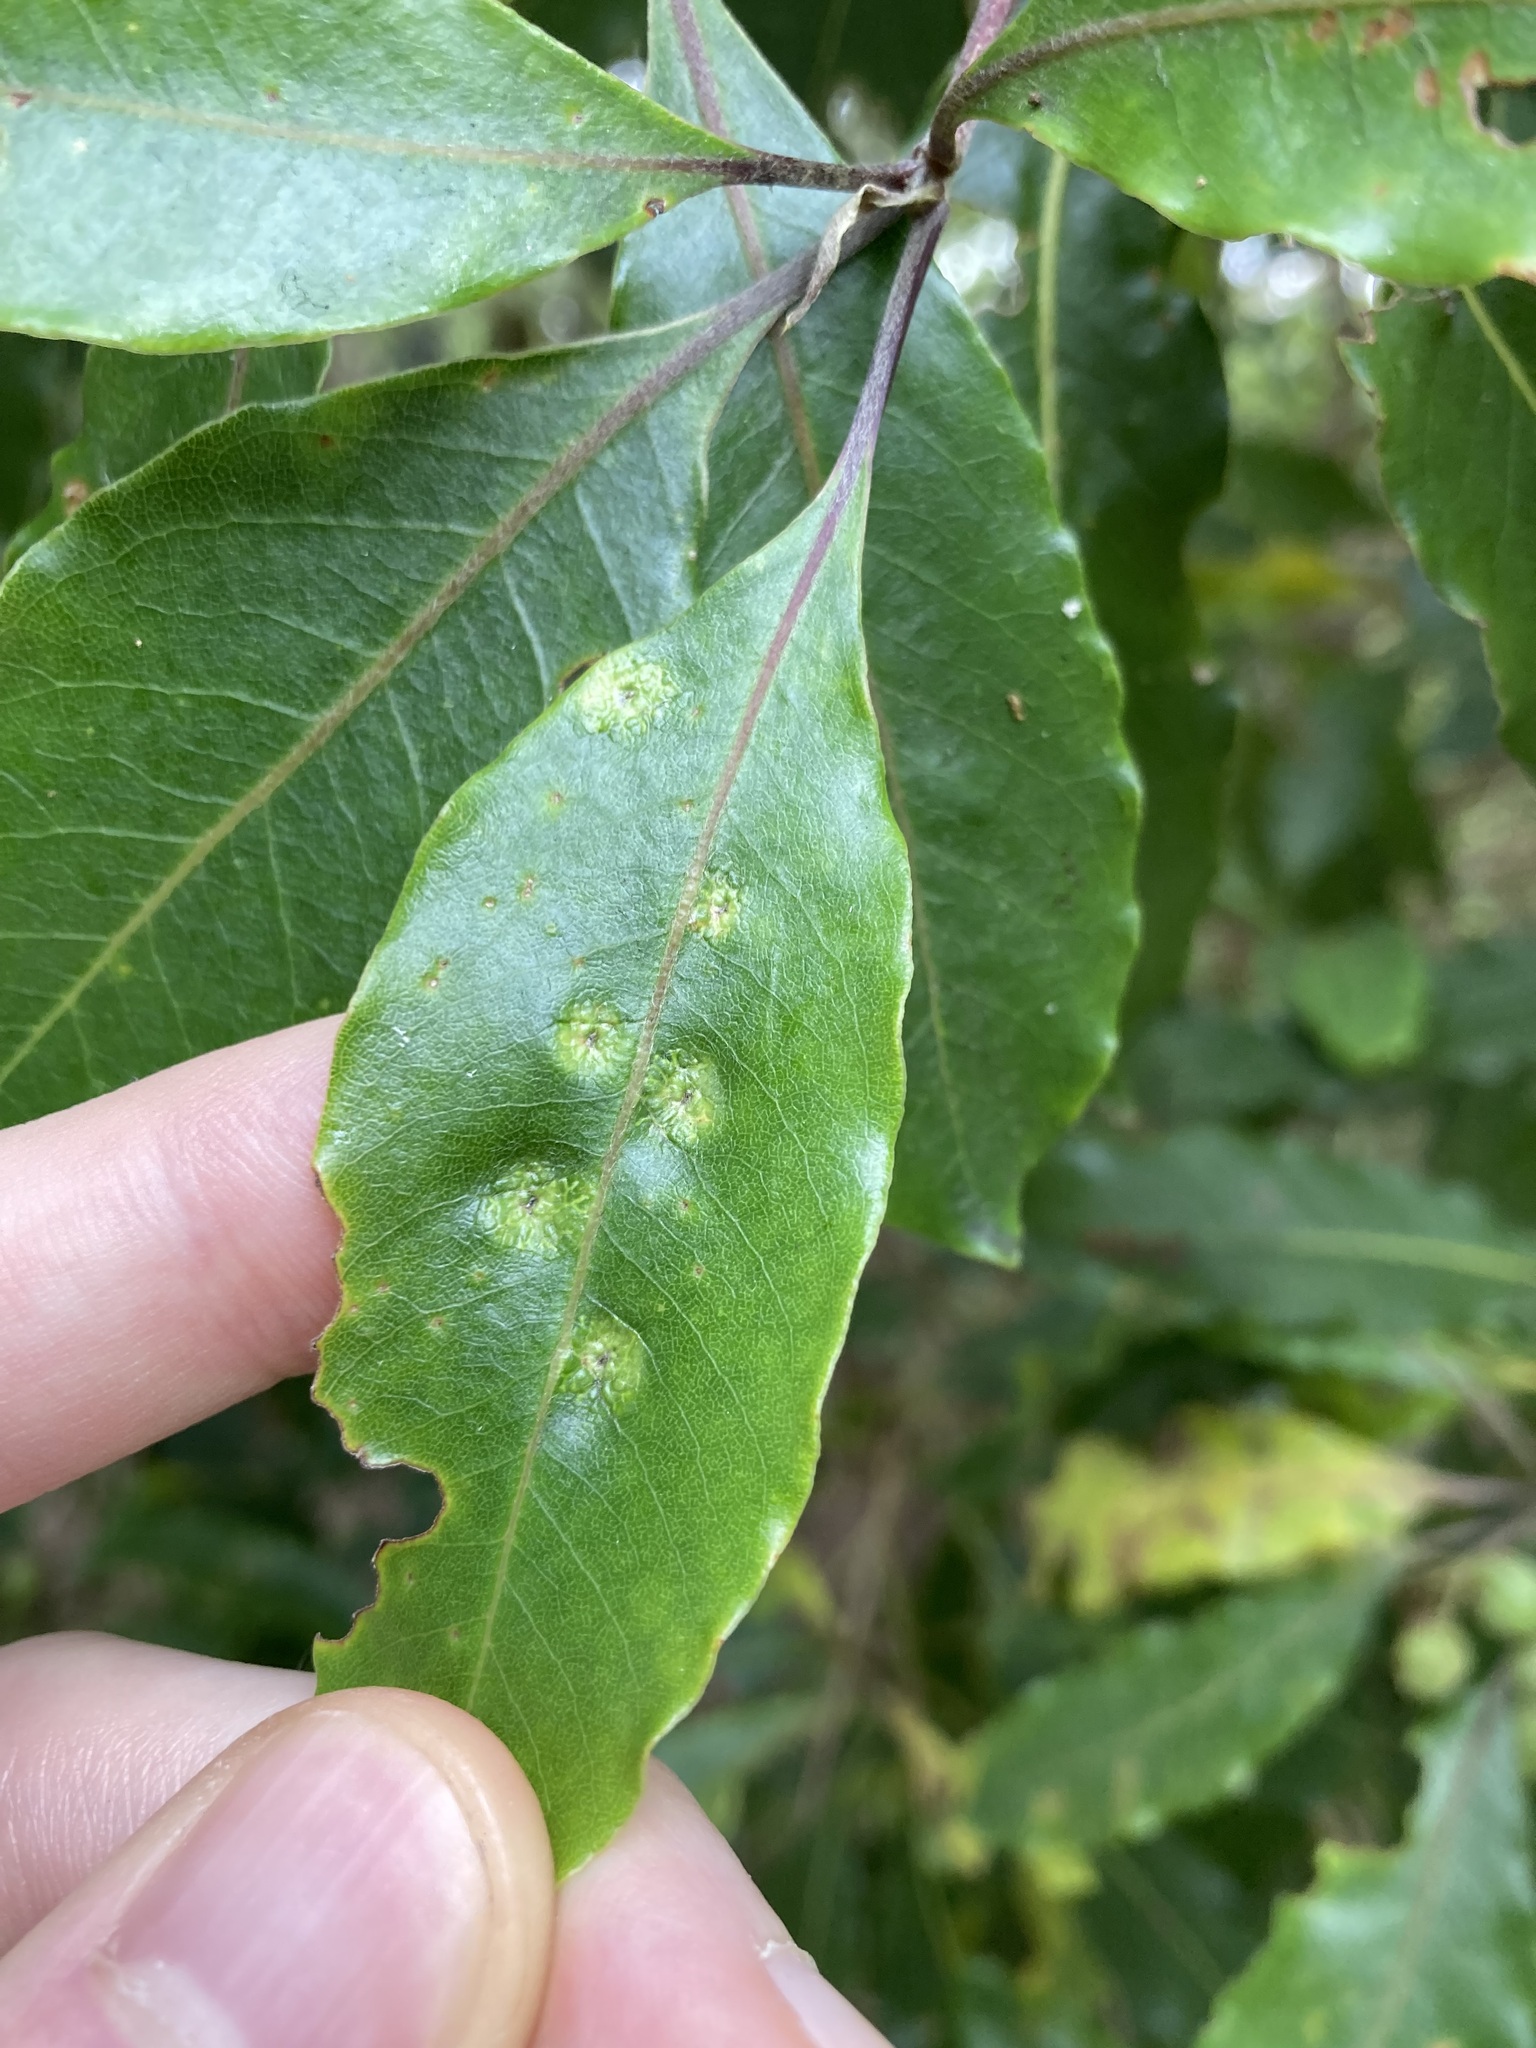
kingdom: Animalia
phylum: Arthropoda
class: Insecta
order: Diptera
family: Agromyzidae
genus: Phytoliriomyza
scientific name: Phytoliriomyza pittosporophylli
